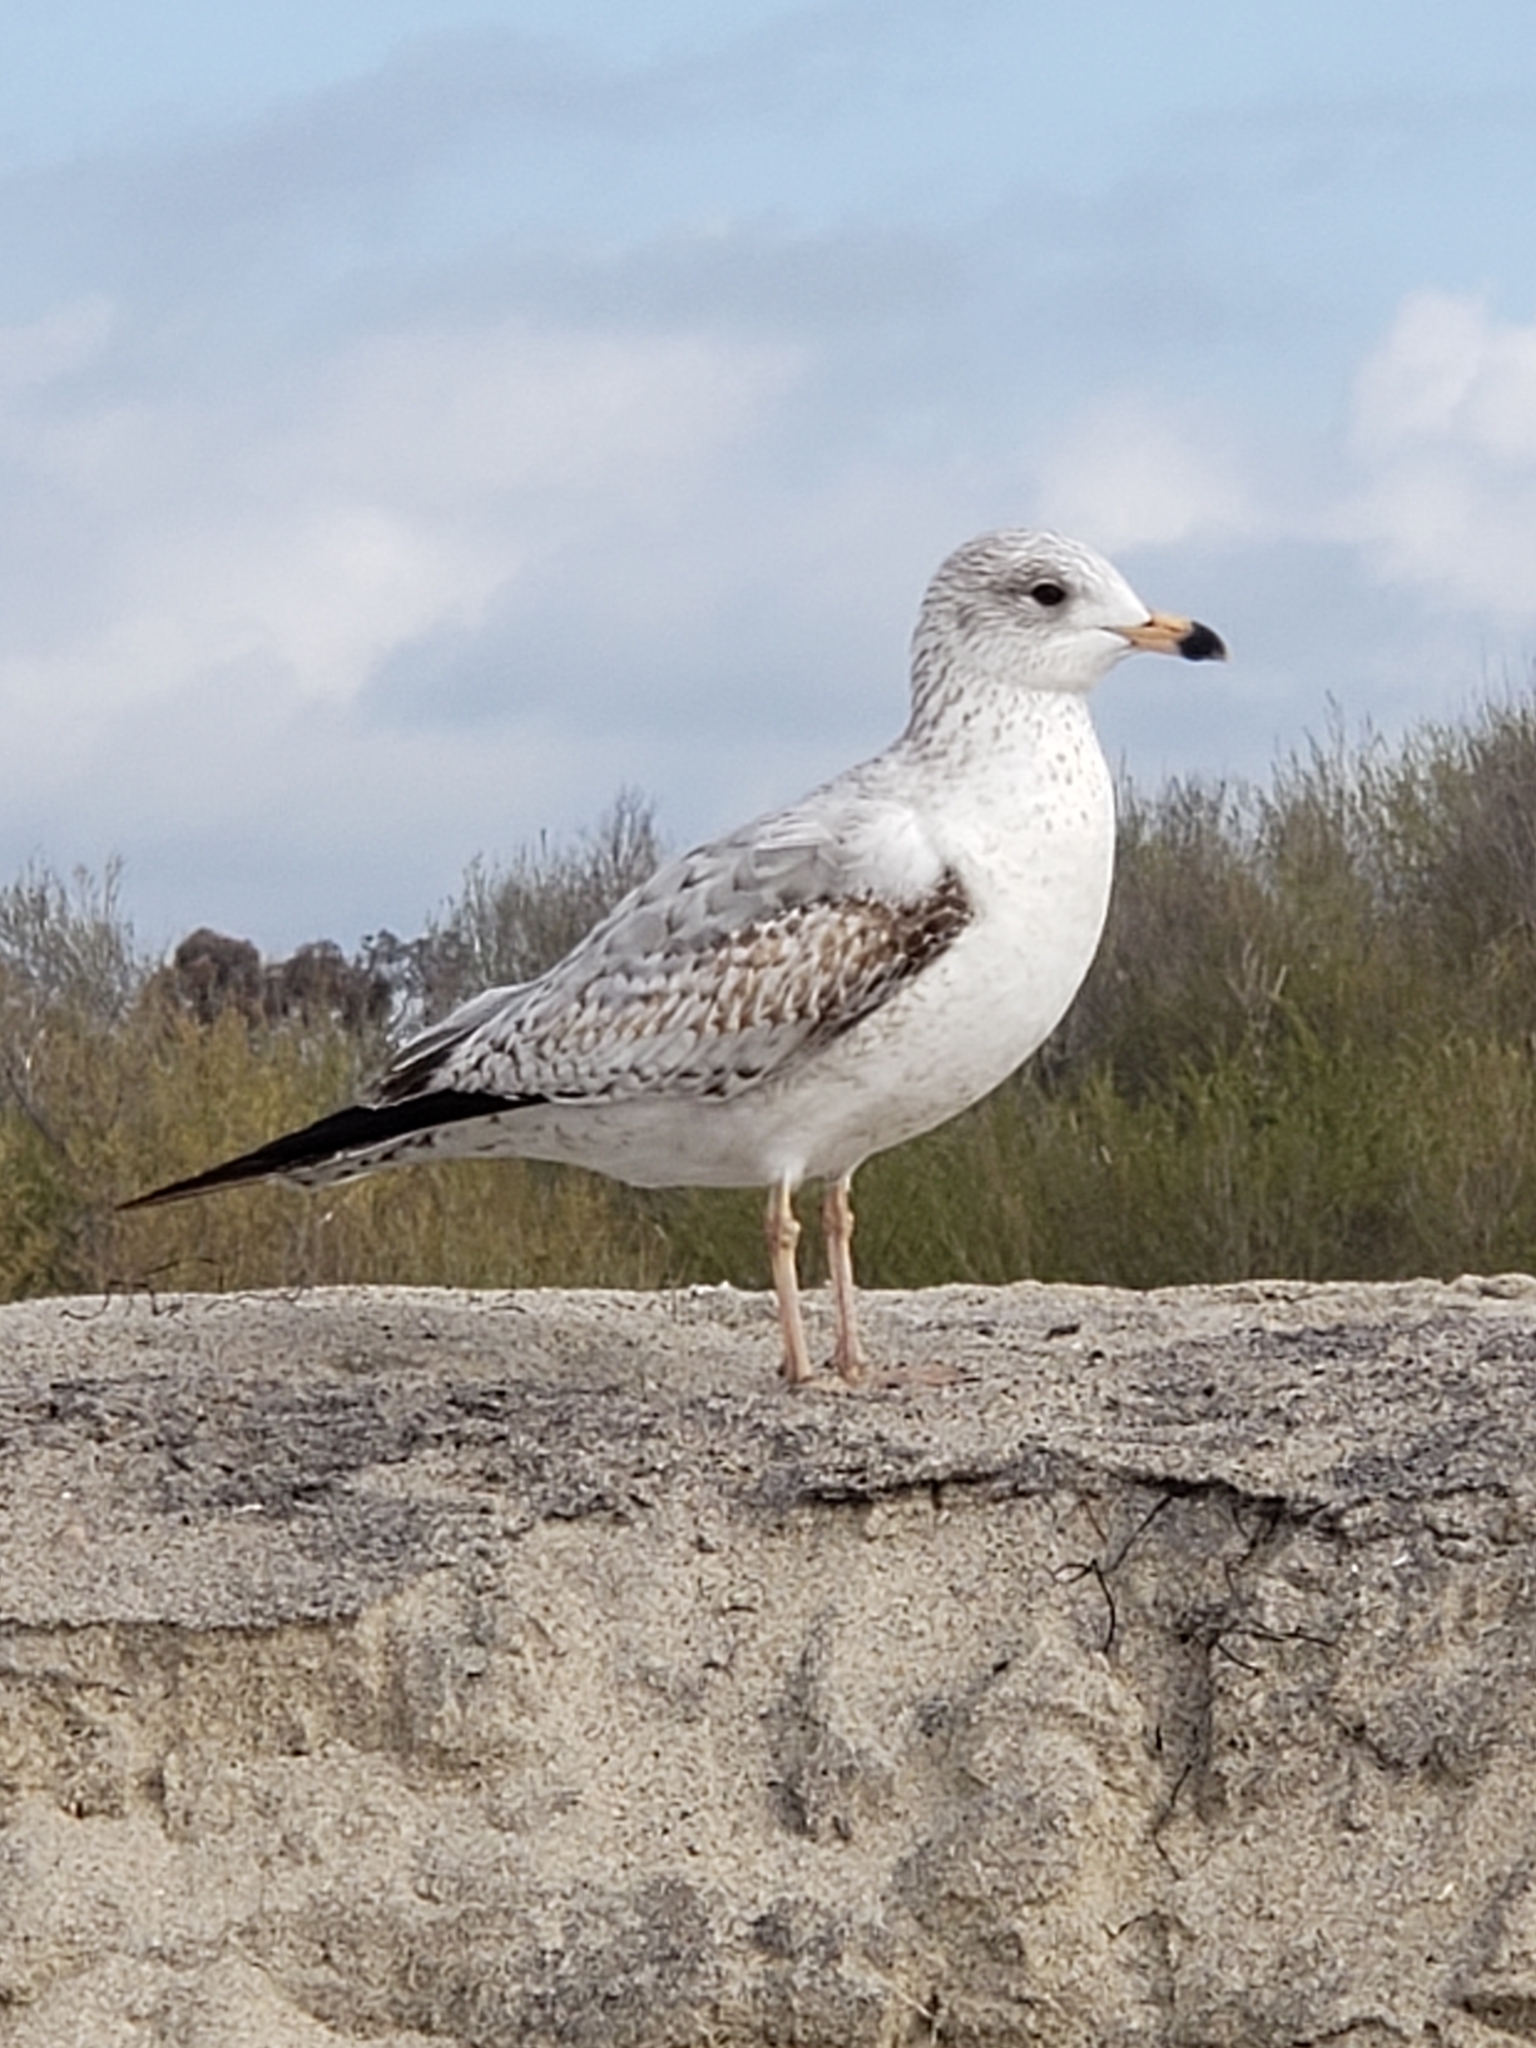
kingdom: Animalia
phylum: Chordata
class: Aves
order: Charadriiformes
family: Laridae
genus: Larus
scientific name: Larus delawarensis
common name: Ring-billed gull
